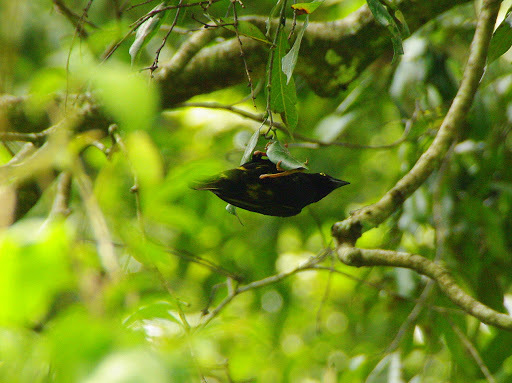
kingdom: Animalia
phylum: Chordata
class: Aves
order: Passeriformes
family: Ploceidae
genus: Ploceus
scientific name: Ploceus nigerrimus
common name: Vieillot's black weaver
